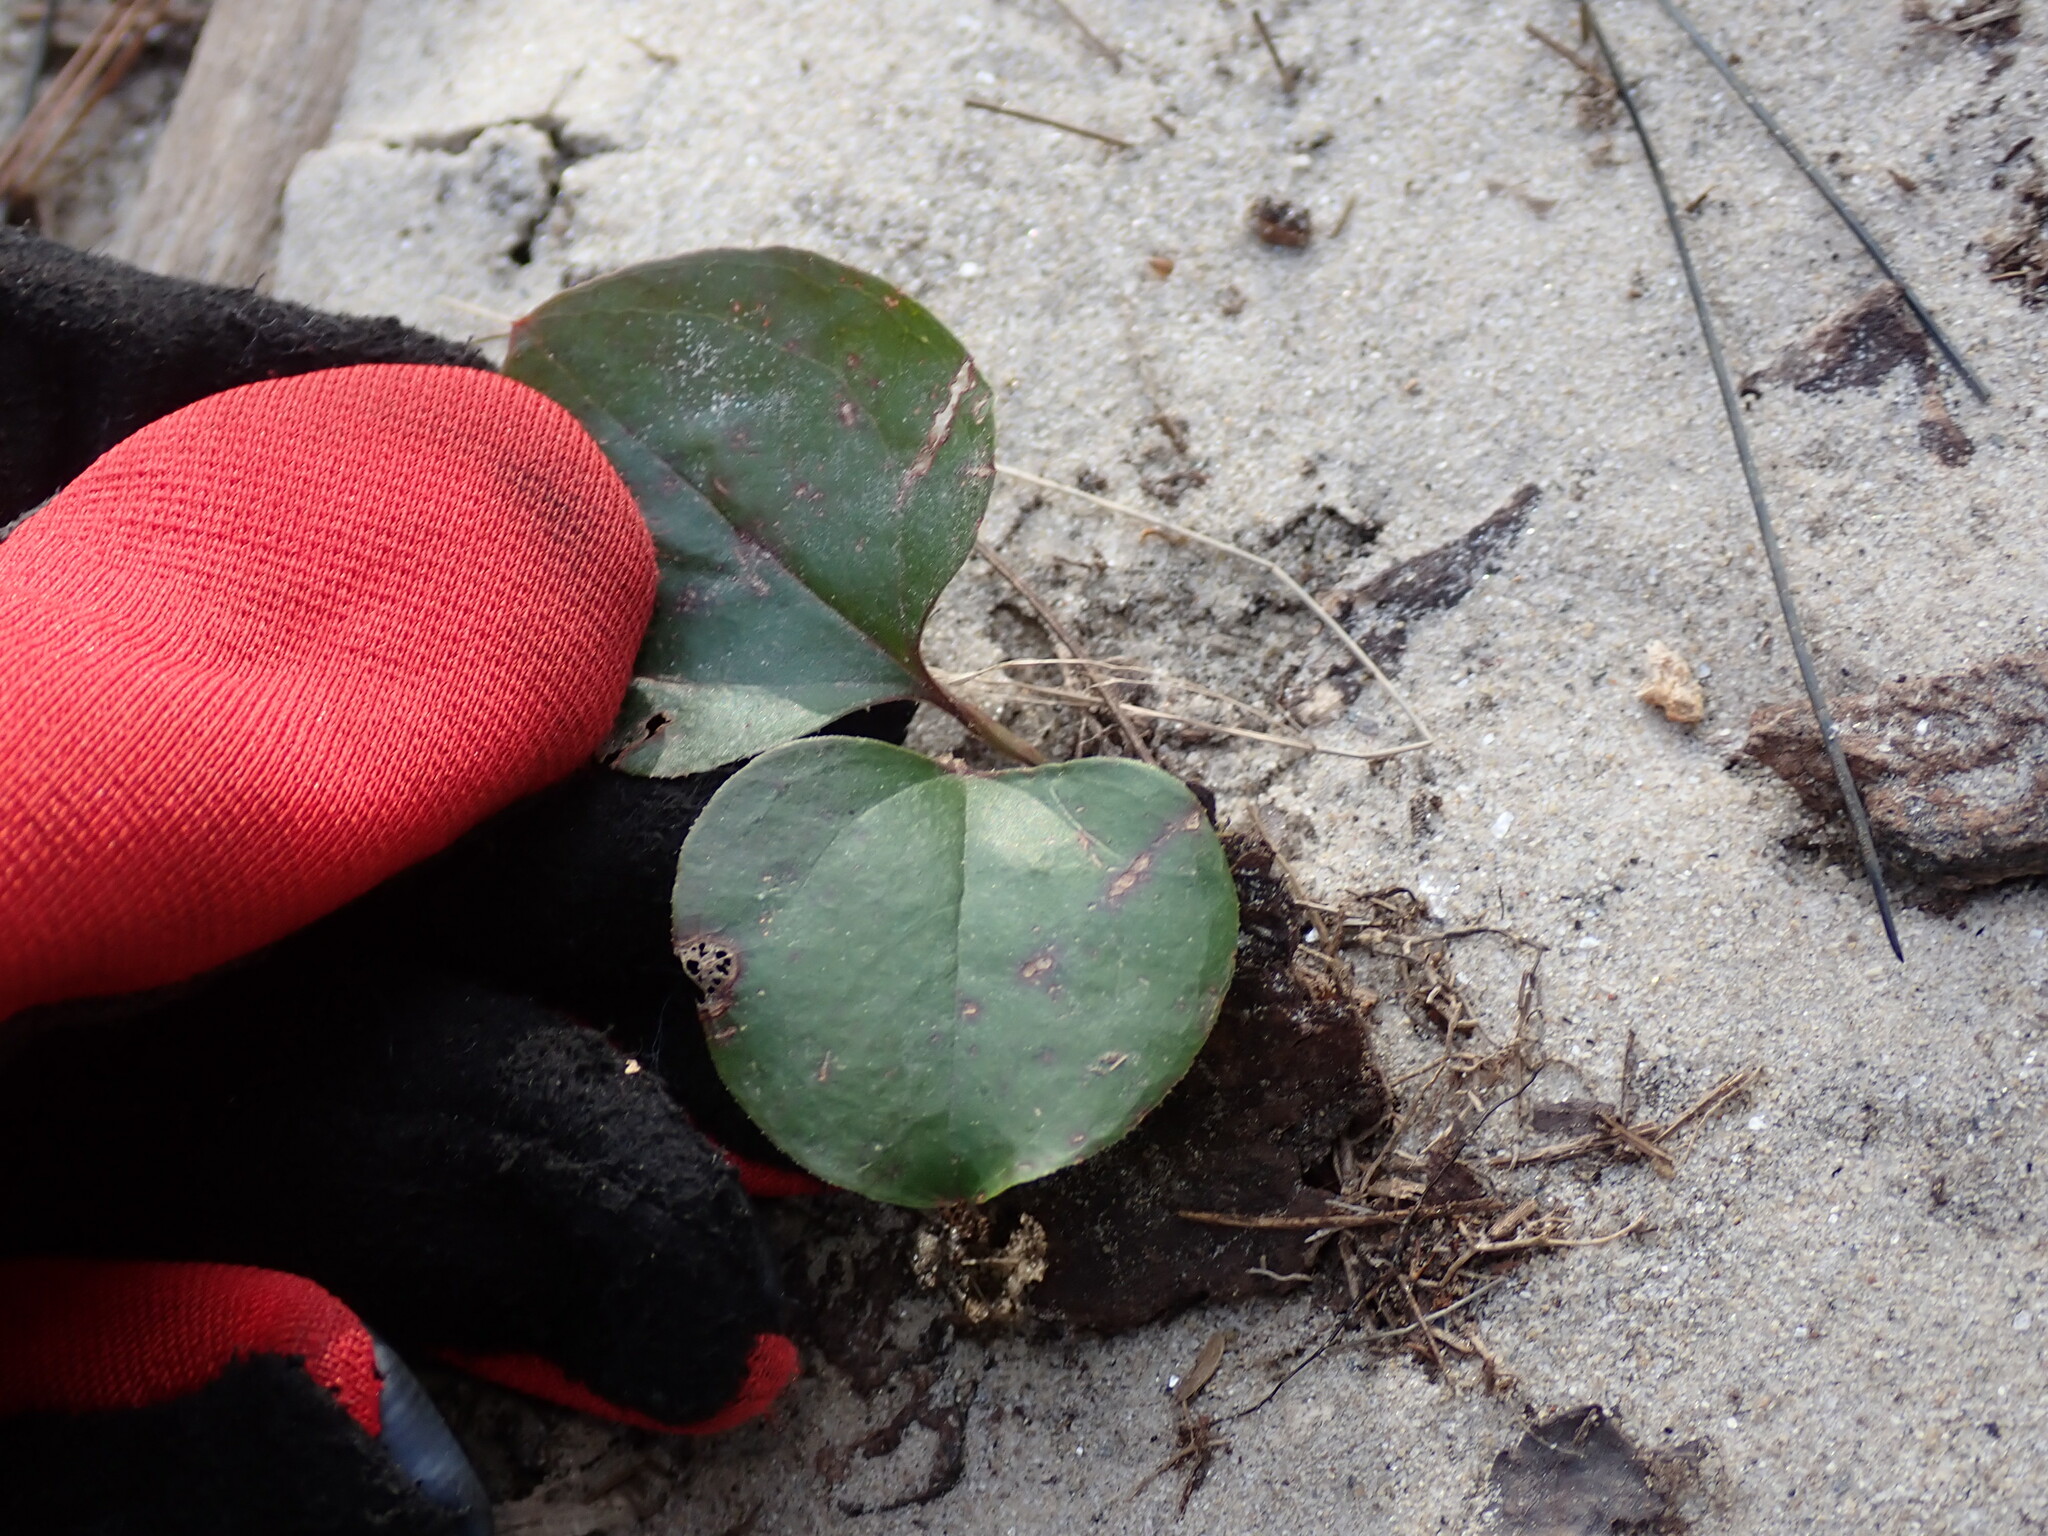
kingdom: Plantae
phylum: Tracheophyta
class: Liliopsida
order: Liliales
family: Smilacaceae
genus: Smilax
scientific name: Smilax rotundifolia
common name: Bullbriar
